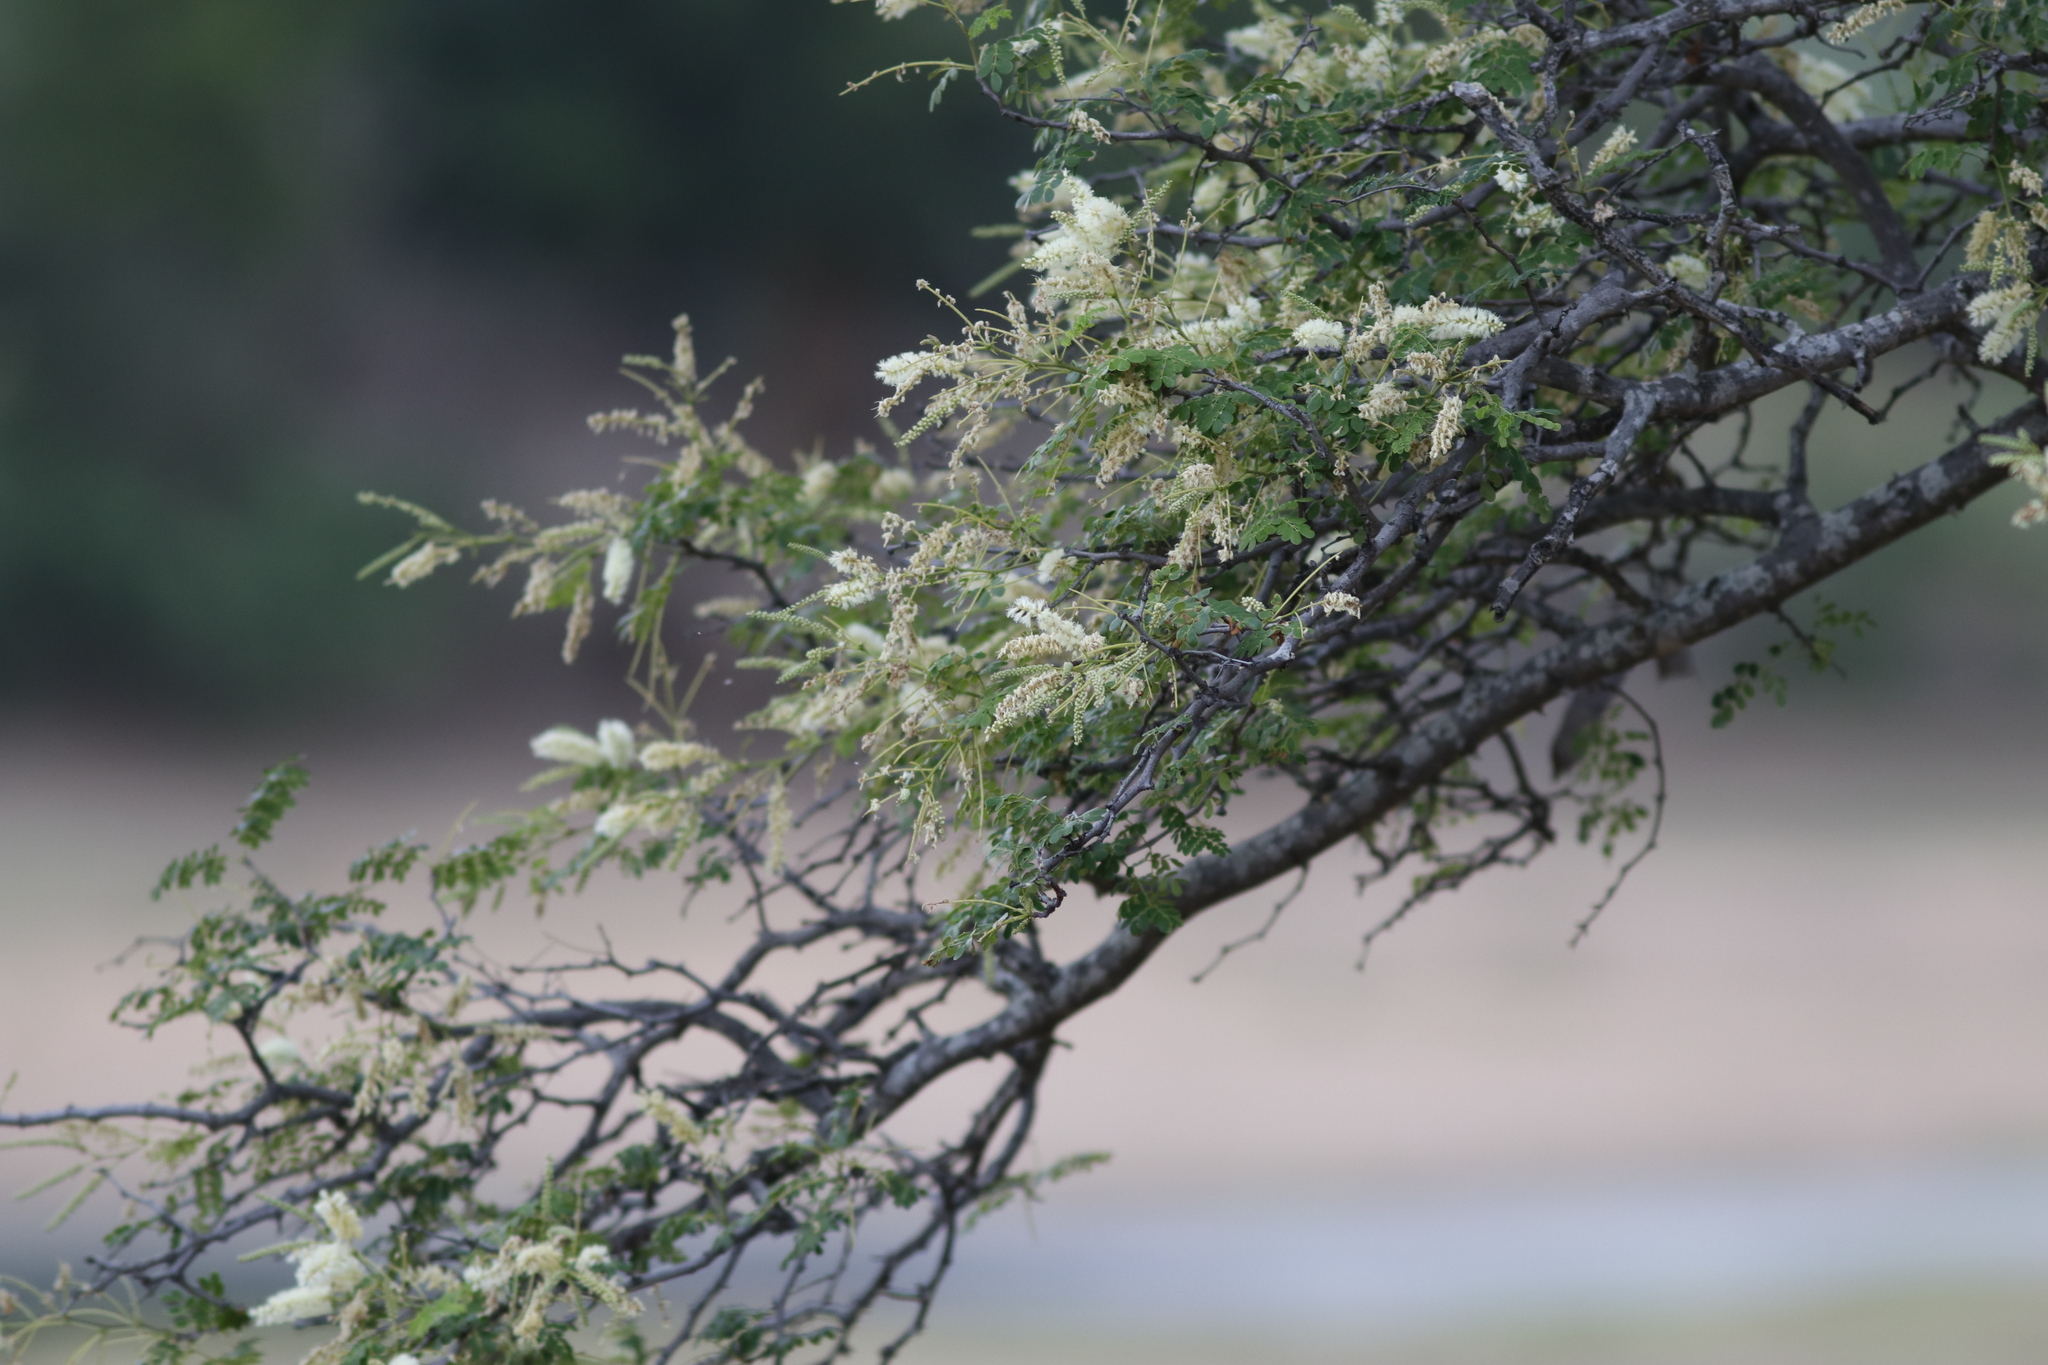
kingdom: Plantae
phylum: Tracheophyta
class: Magnoliopsida
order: Fabales
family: Fabaceae
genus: Senegalia
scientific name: Senegalia burkei
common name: Black monkey thorn
